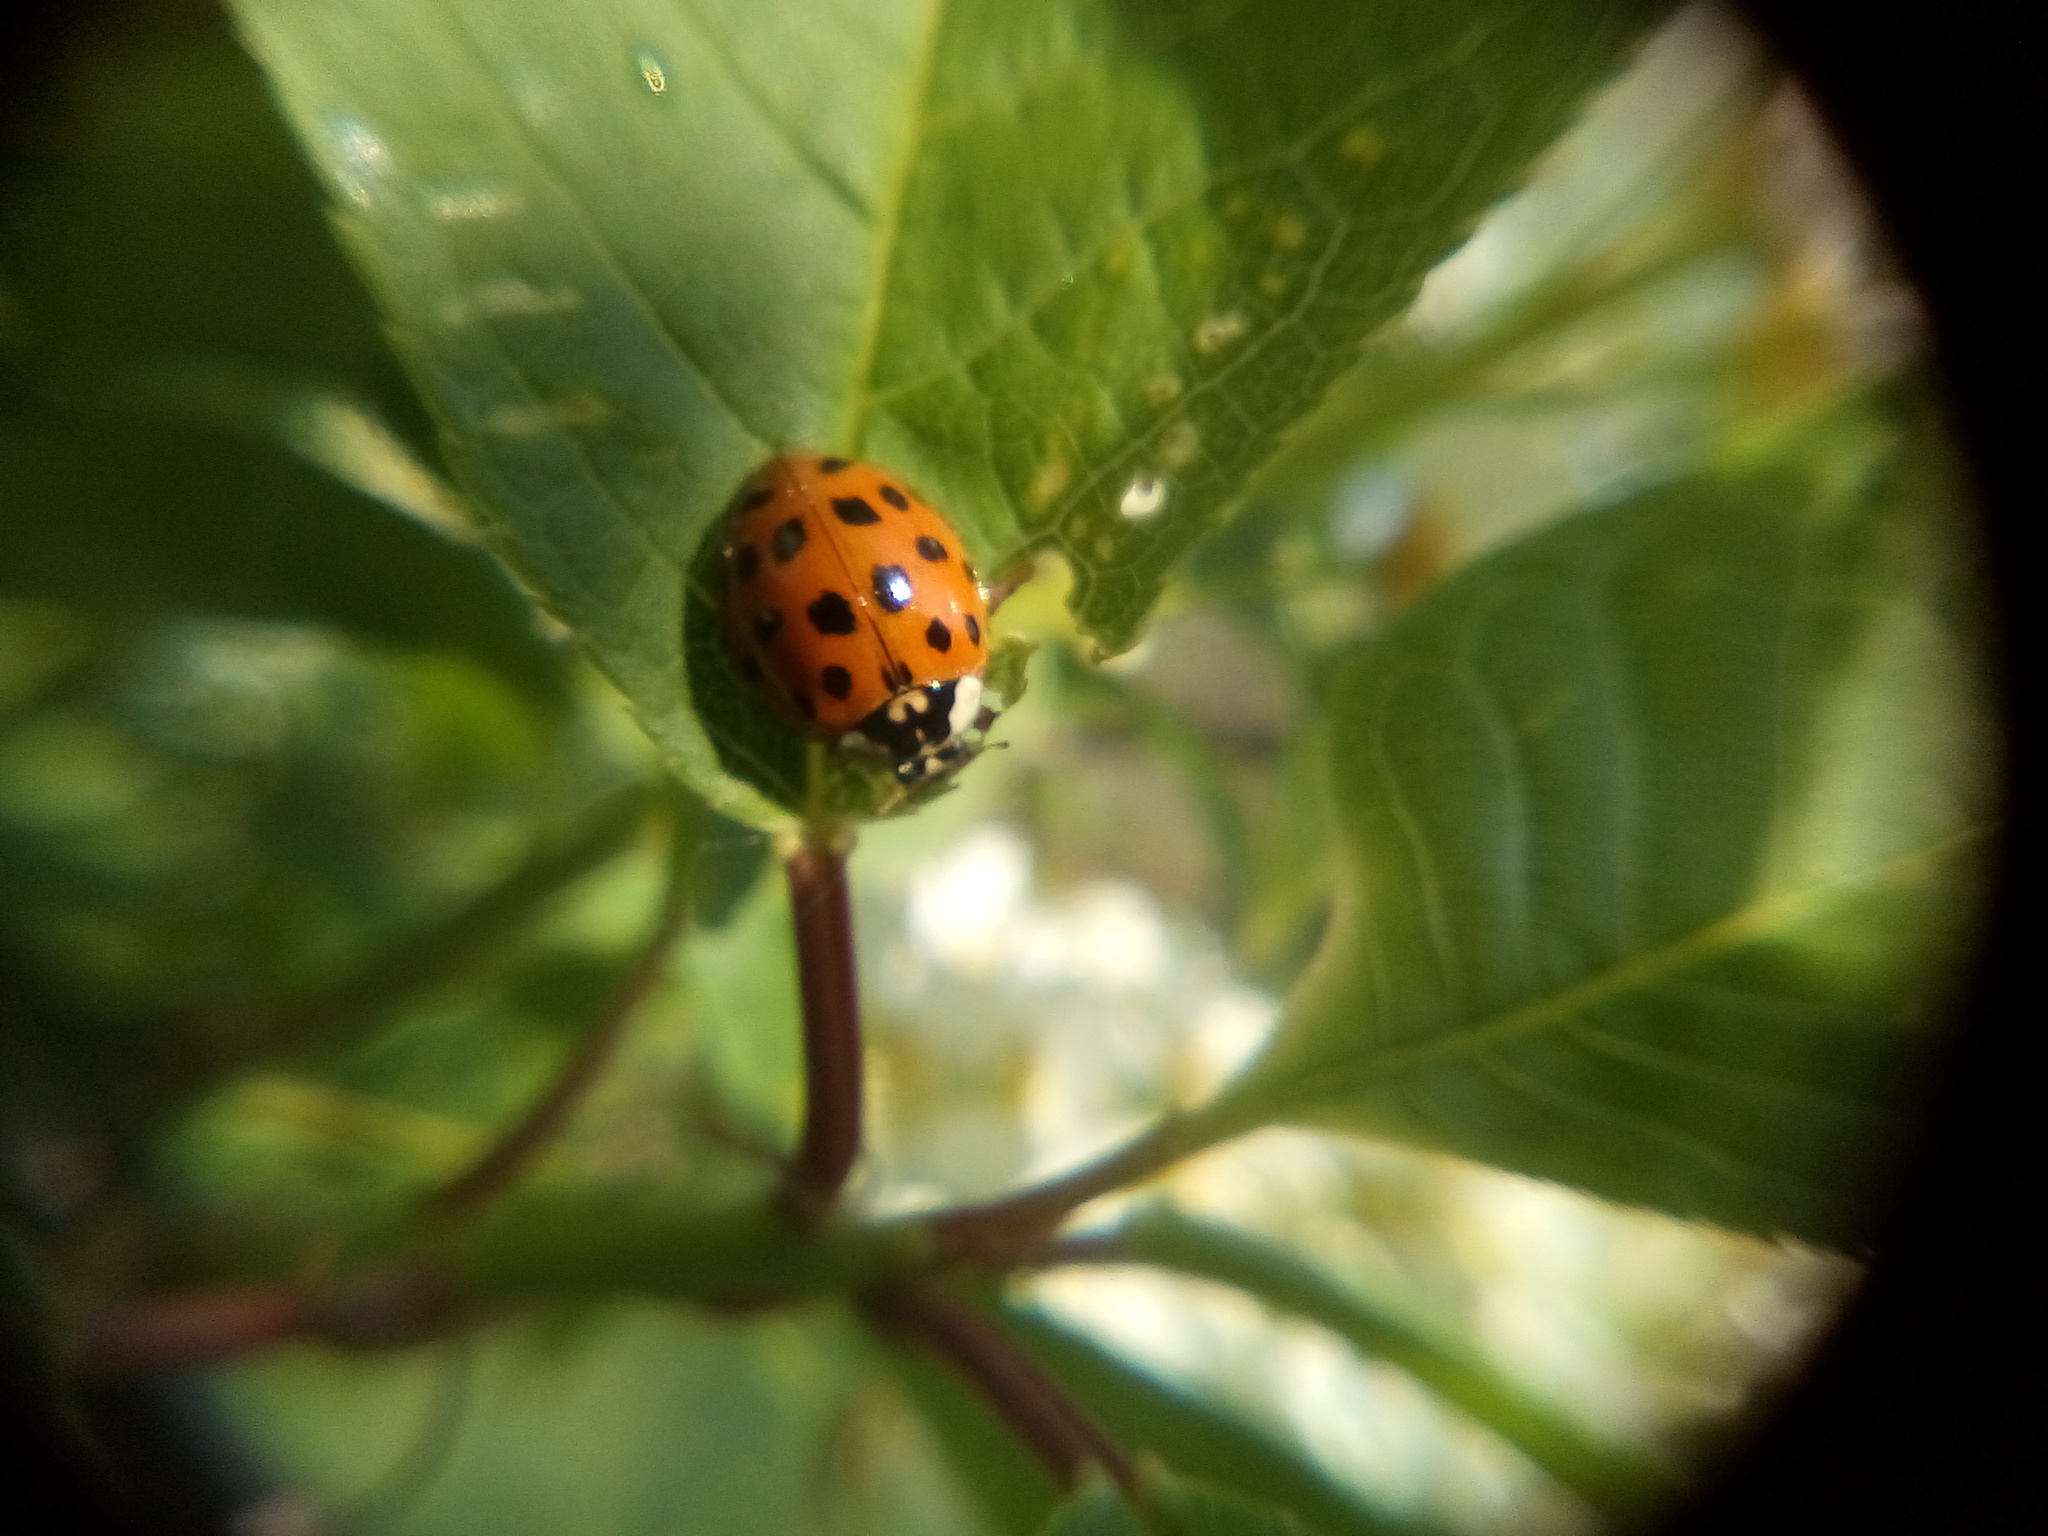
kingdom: Animalia
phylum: Arthropoda
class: Insecta
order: Coleoptera
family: Coccinellidae
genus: Harmonia
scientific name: Harmonia axyridis
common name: Harlequin ladybird
